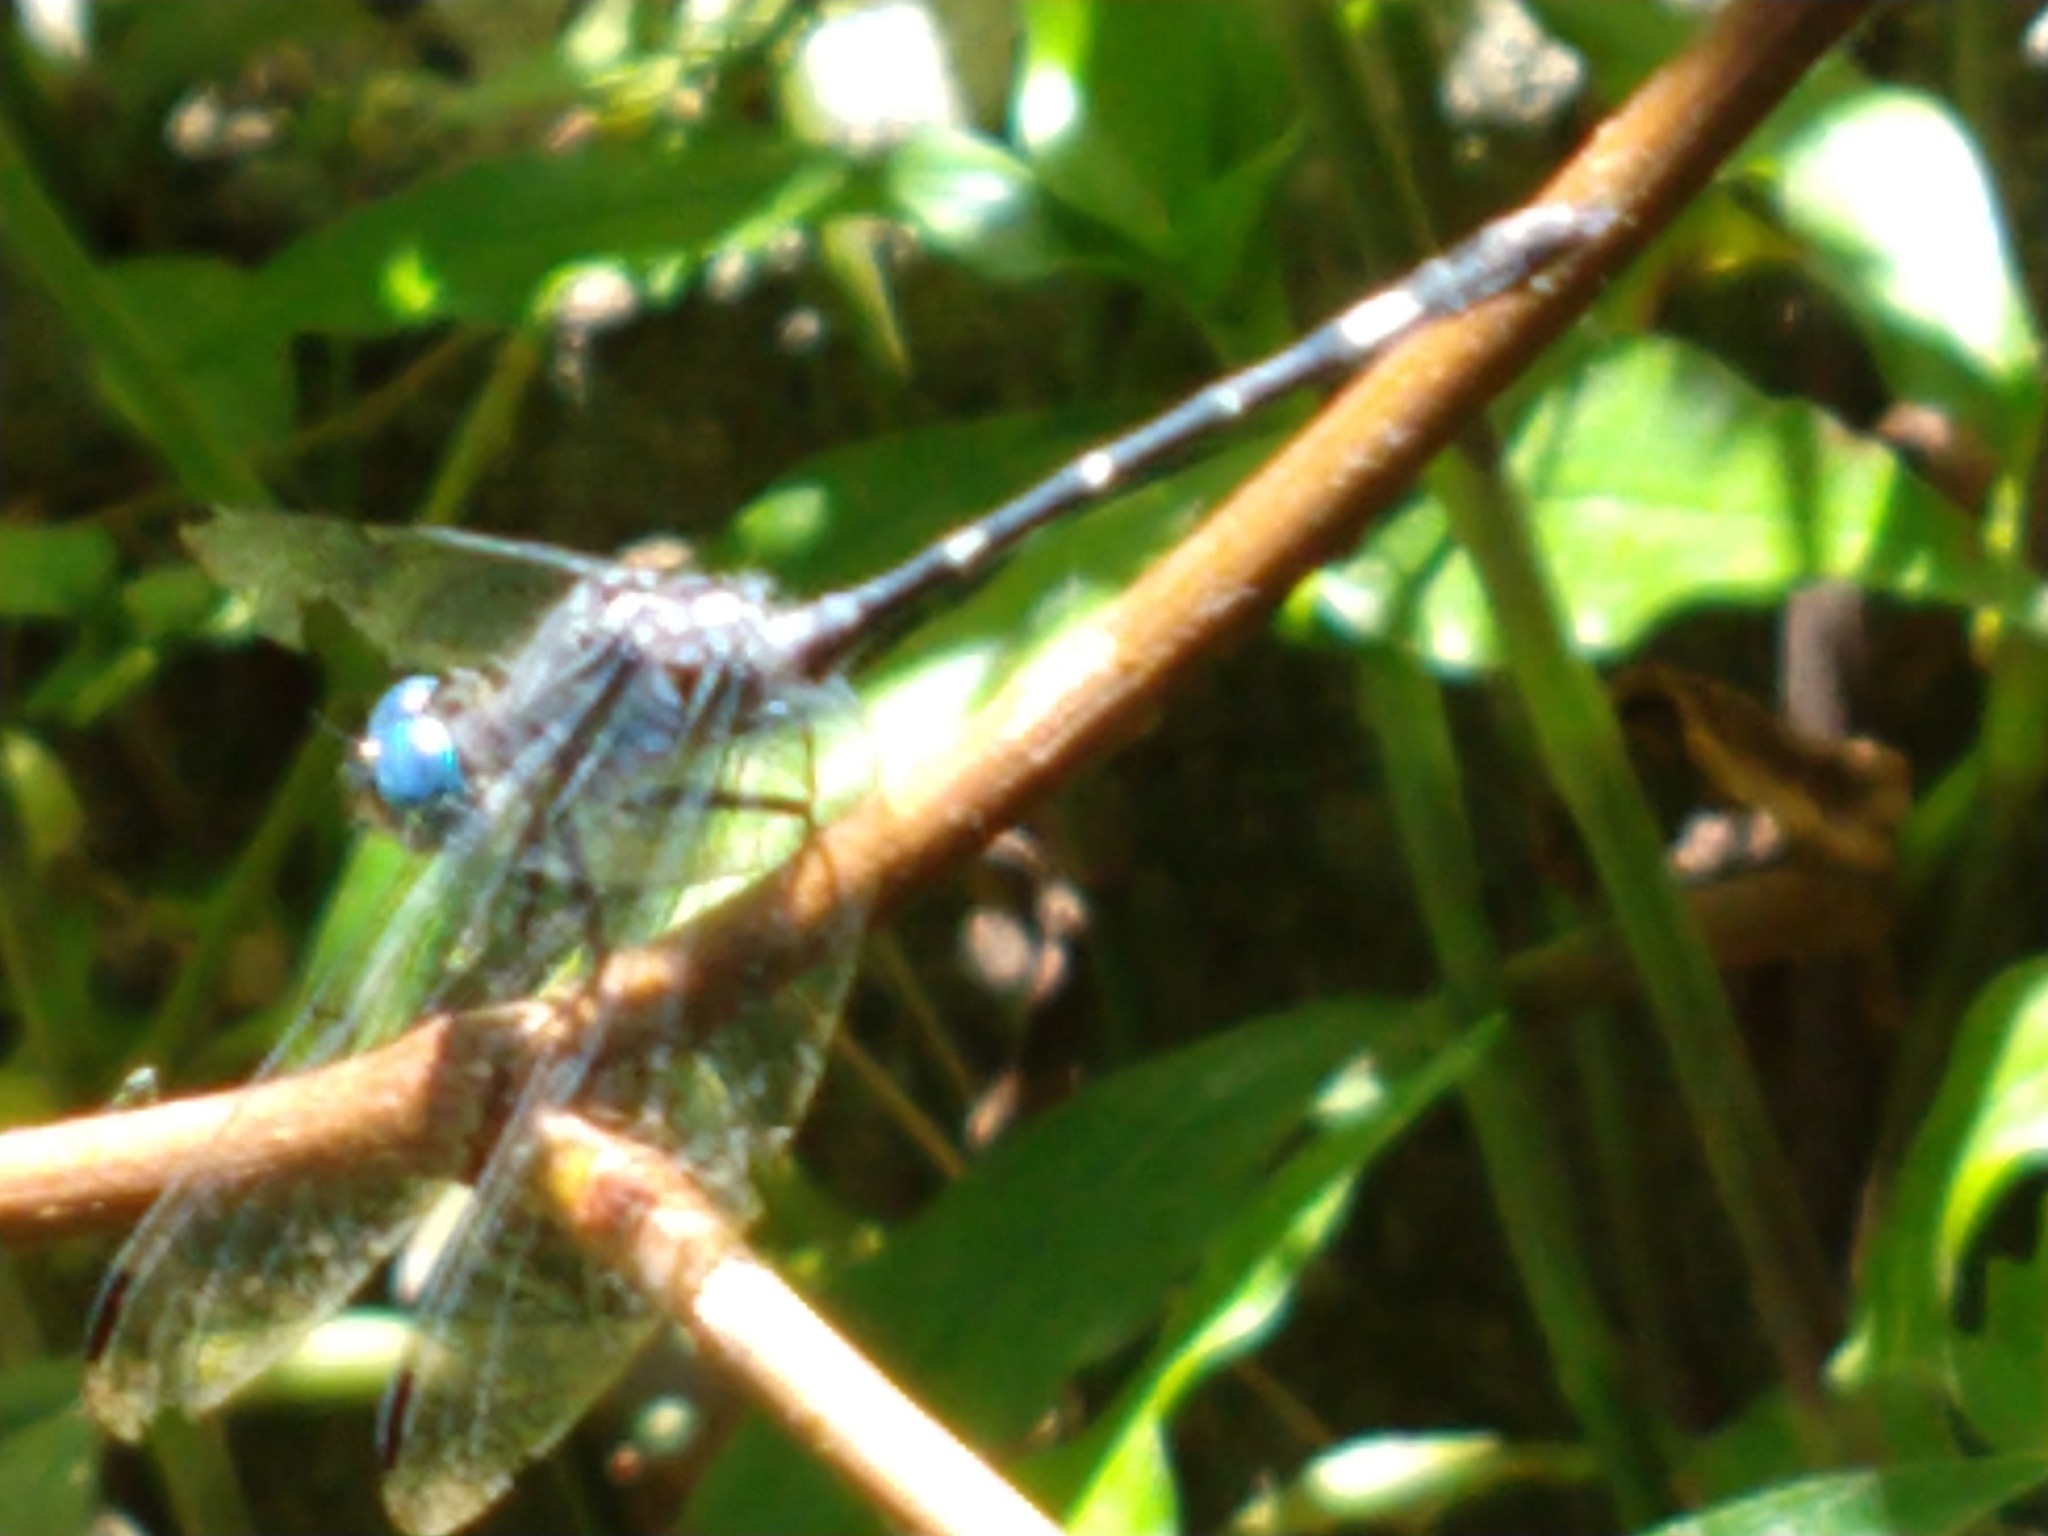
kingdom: Animalia
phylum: Arthropoda
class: Insecta
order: Odonata
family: Libellulidae
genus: Micrathyria
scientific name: Micrathyria hypodidyma
